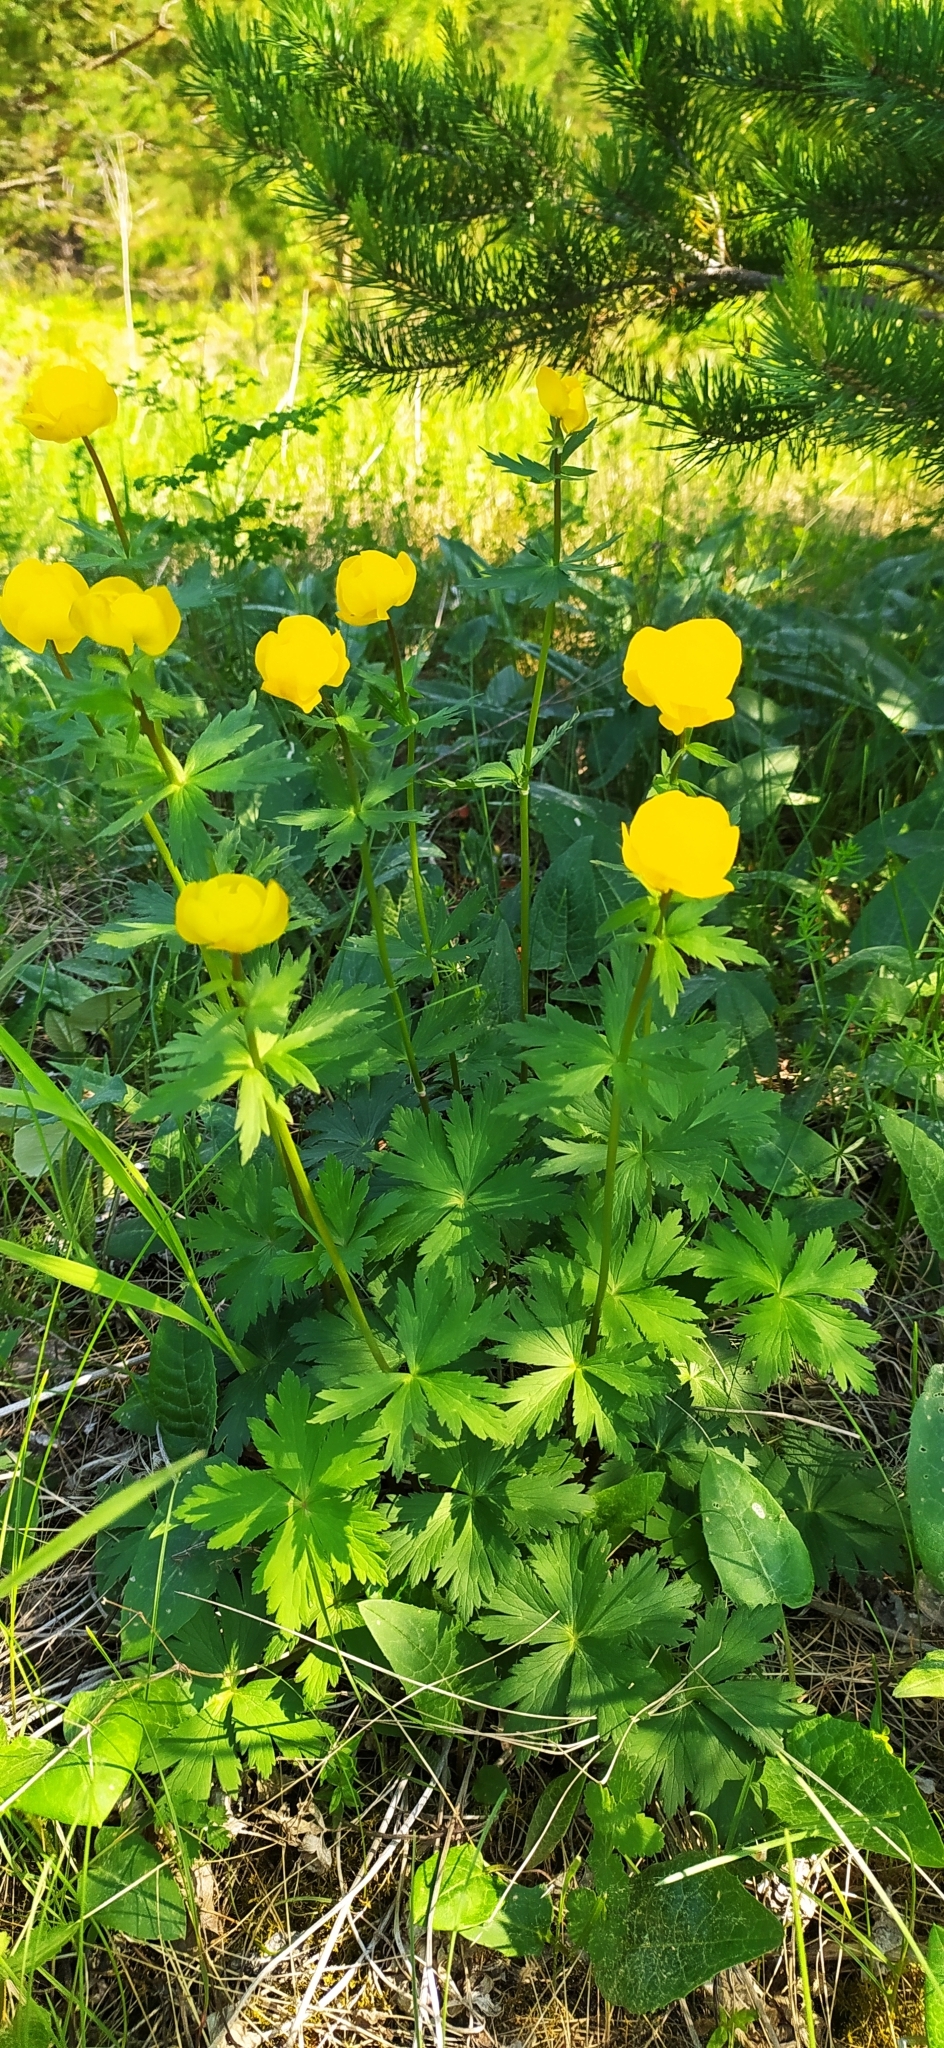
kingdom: Plantae
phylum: Tracheophyta
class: Magnoliopsida
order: Ranunculales
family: Ranunculaceae
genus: Trollius
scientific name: Trollius europaeus
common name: European globeflower
